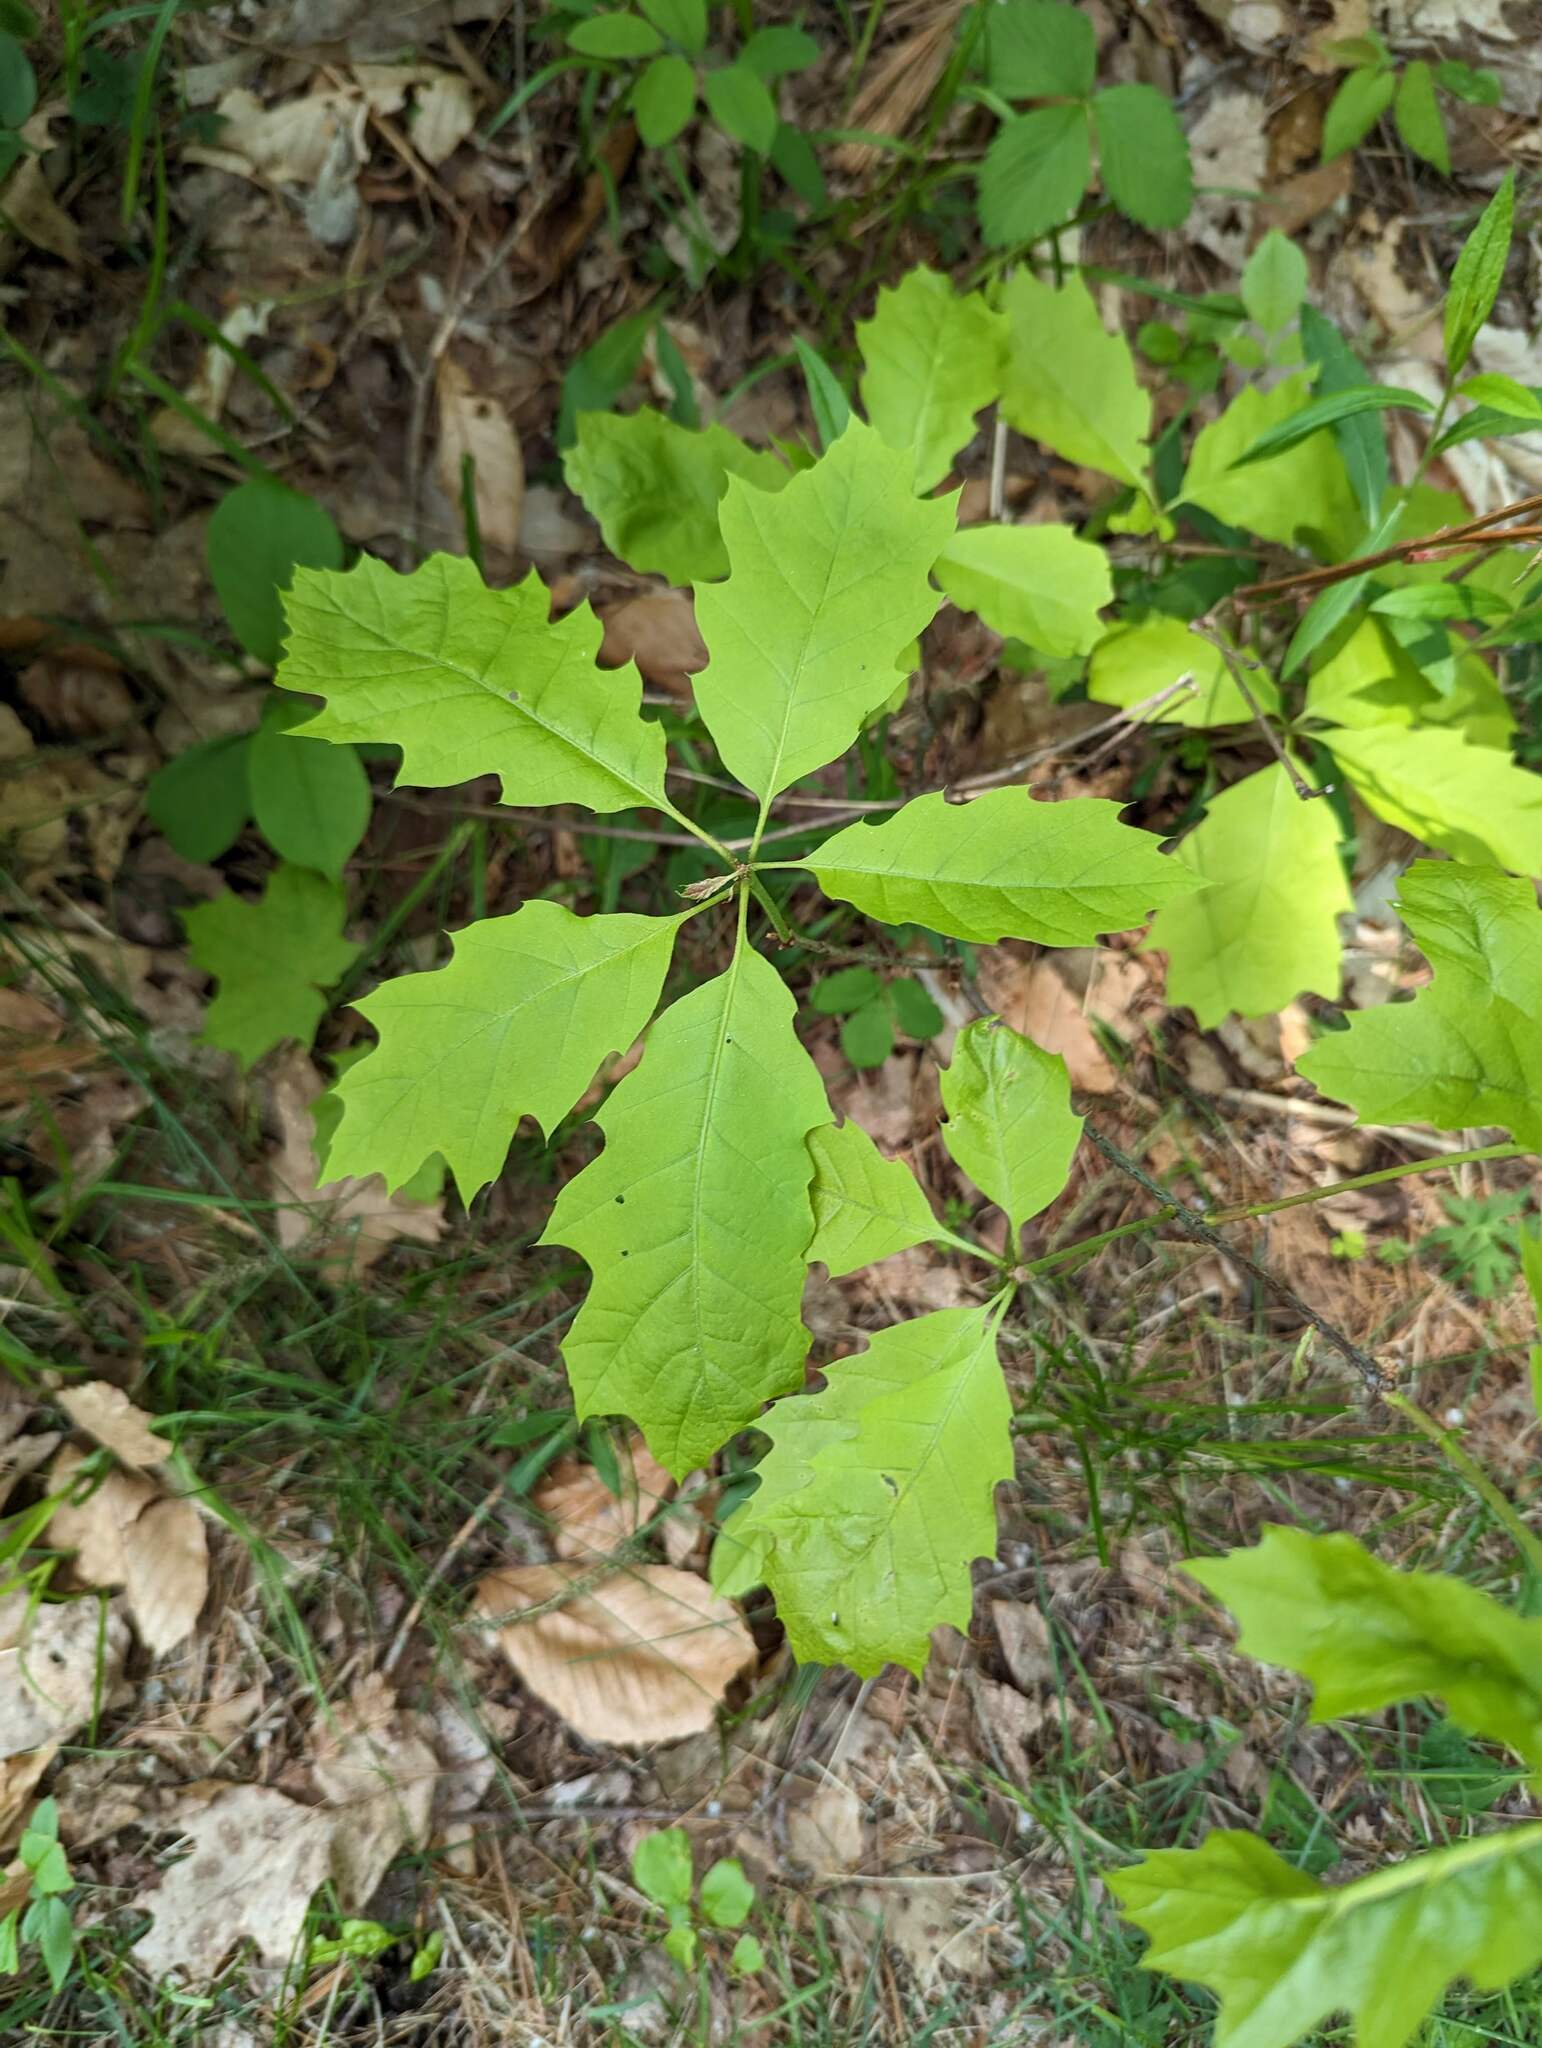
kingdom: Plantae
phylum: Tracheophyta
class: Magnoliopsida
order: Fagales
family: Fagaceae
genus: Quercus
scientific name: Quercus rubra
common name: Red oak
